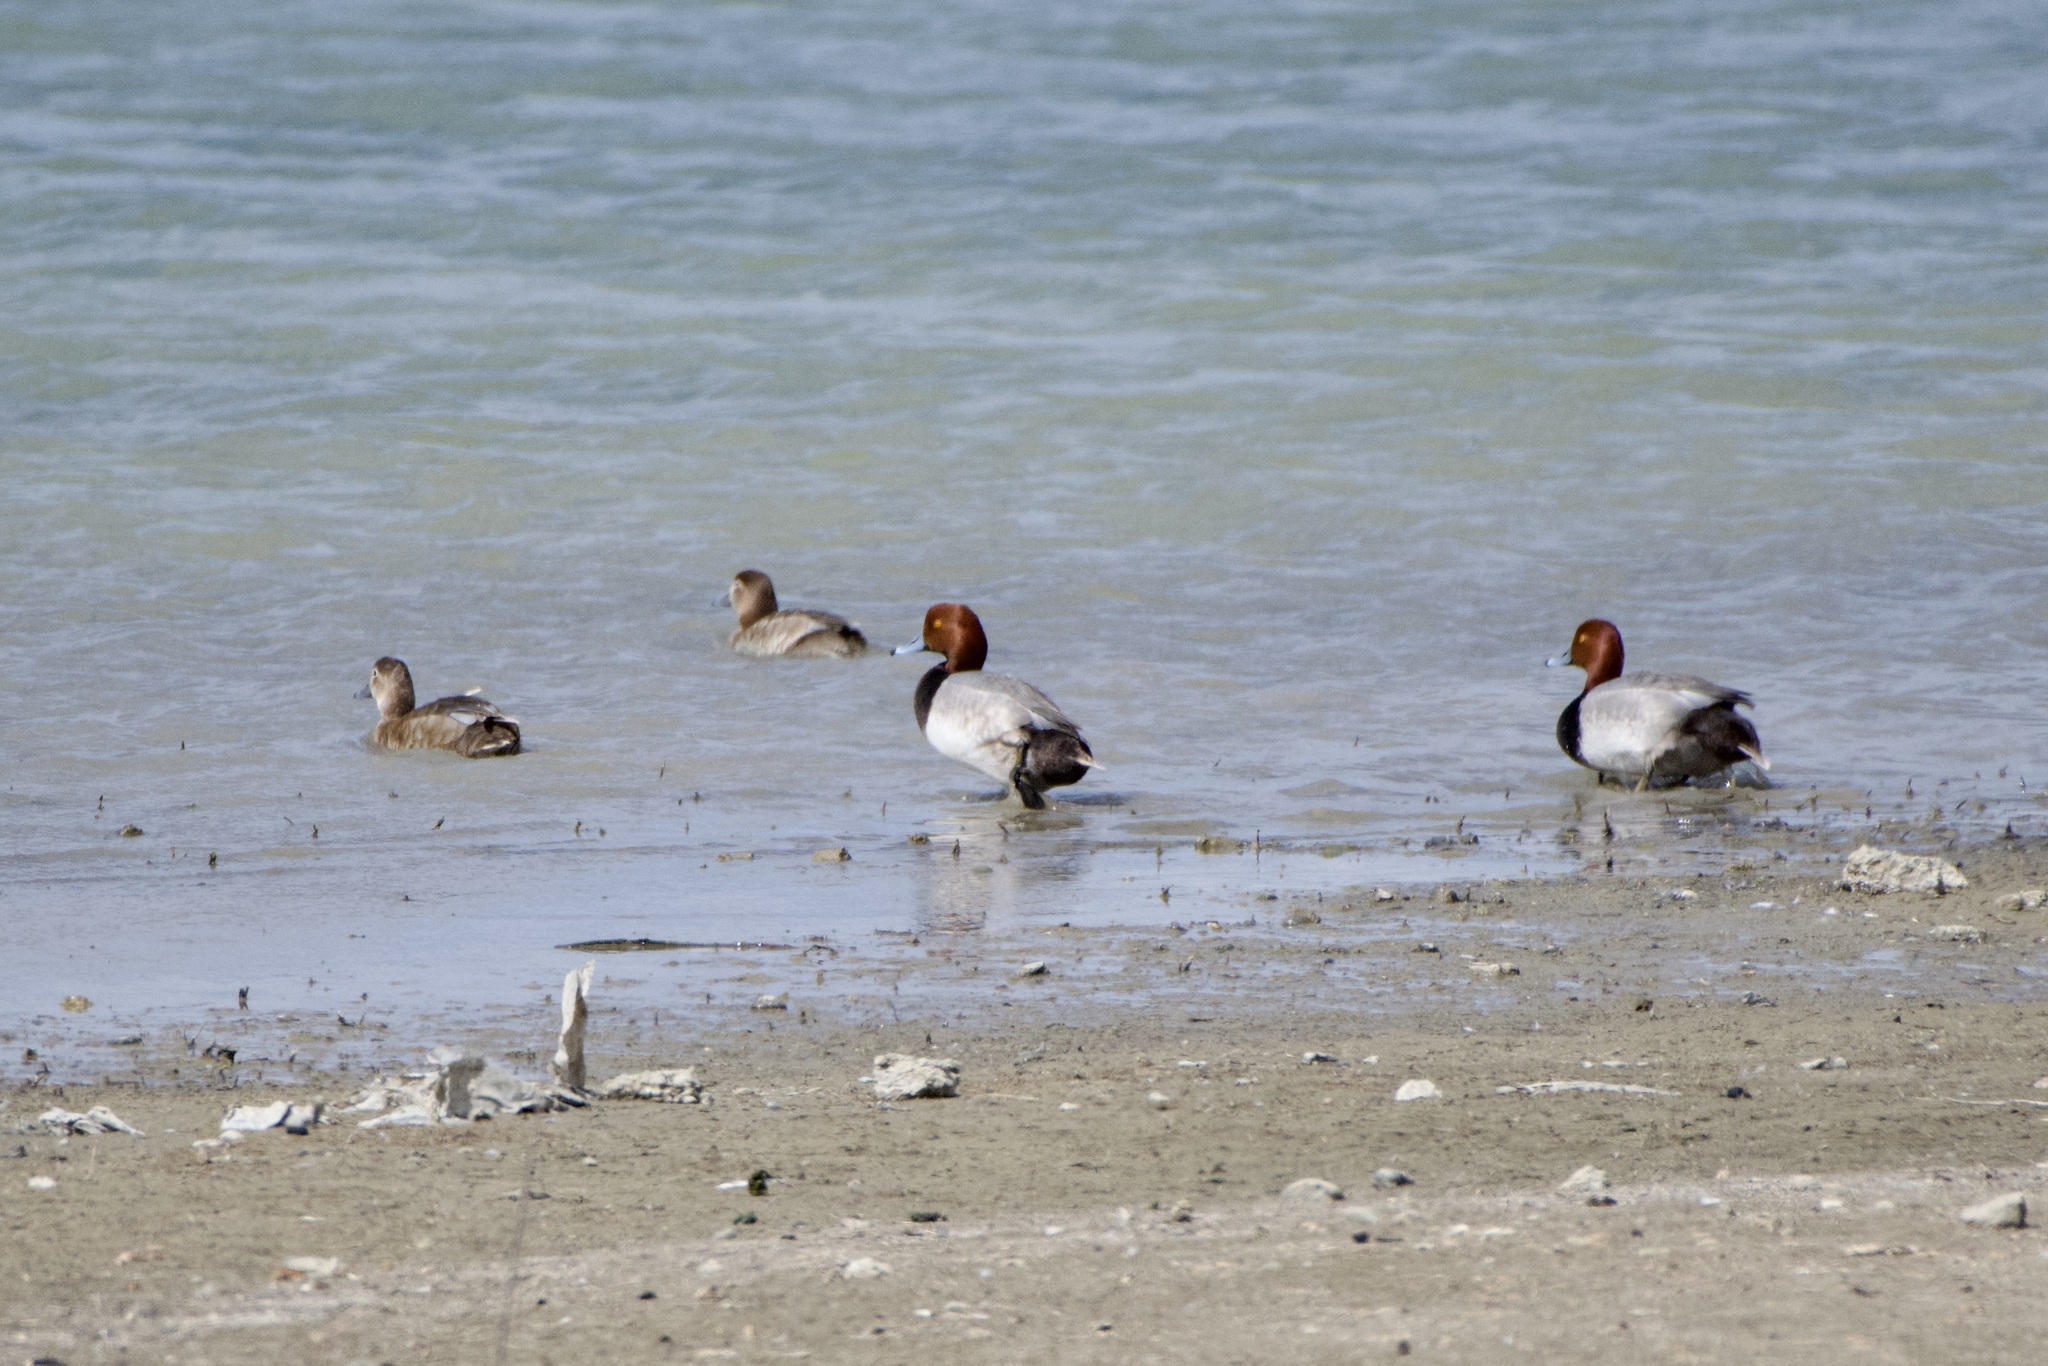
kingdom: Animalia
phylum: Chordata
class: Aves
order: Anseriformes
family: Anatidae
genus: Aythya
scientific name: Aythya americana
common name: Redhead
